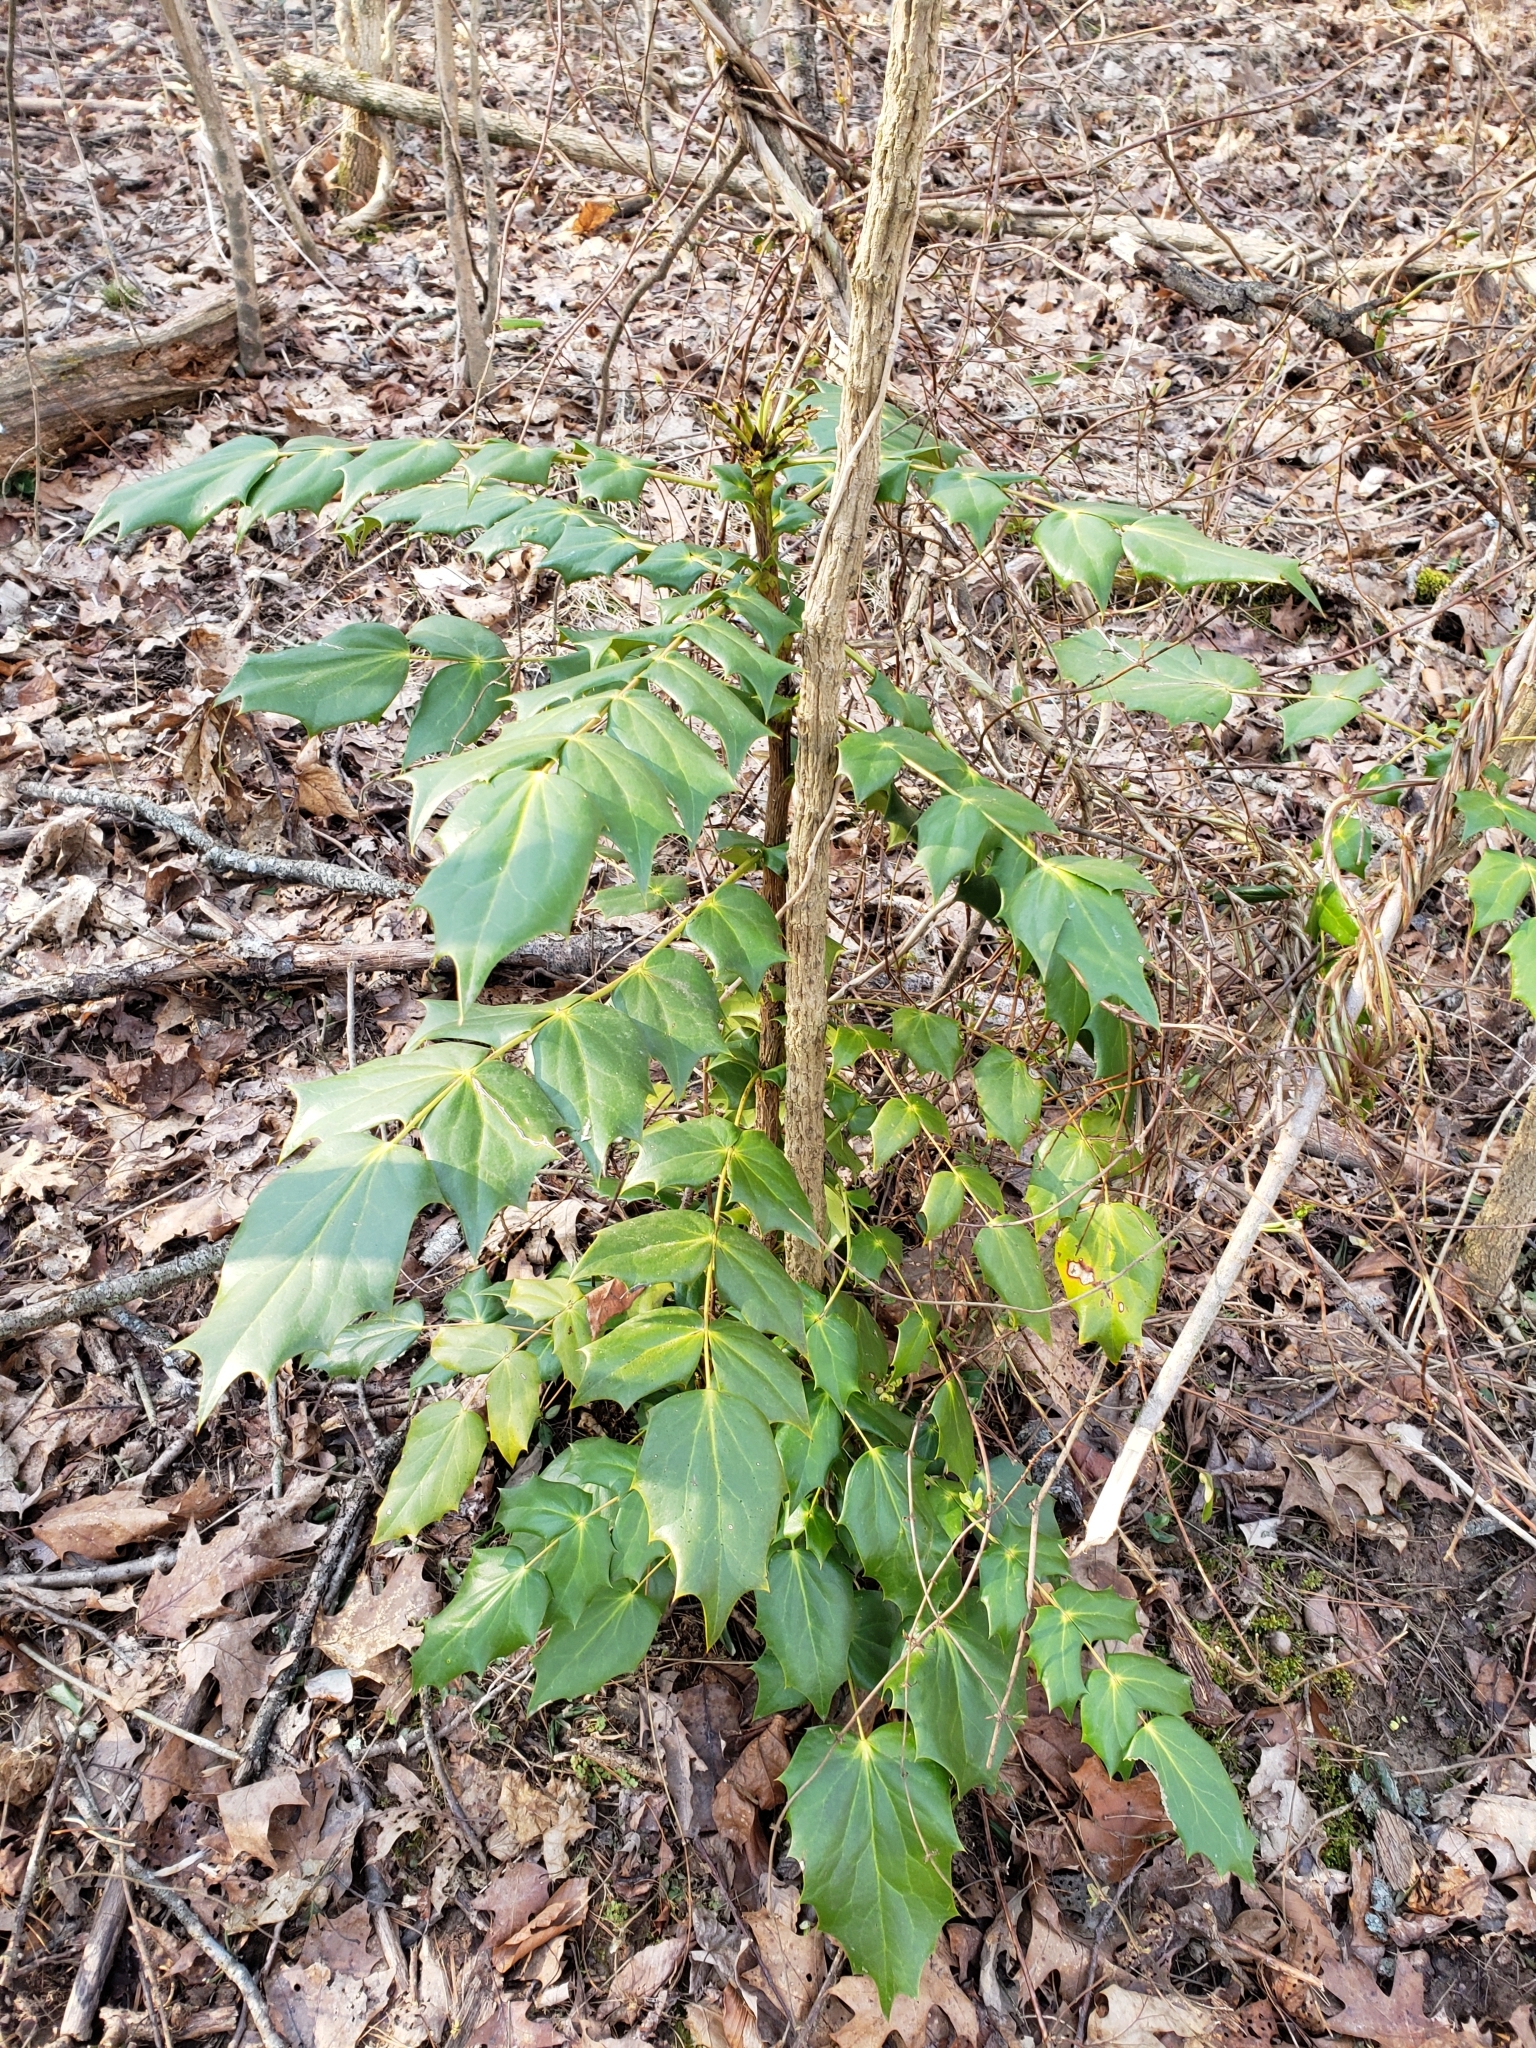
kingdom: Plantae
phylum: Tracheophyta
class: Magnoliopsida
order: Ranunculales
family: Berberidaceae
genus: Mahonia
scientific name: Mahonia bealei
